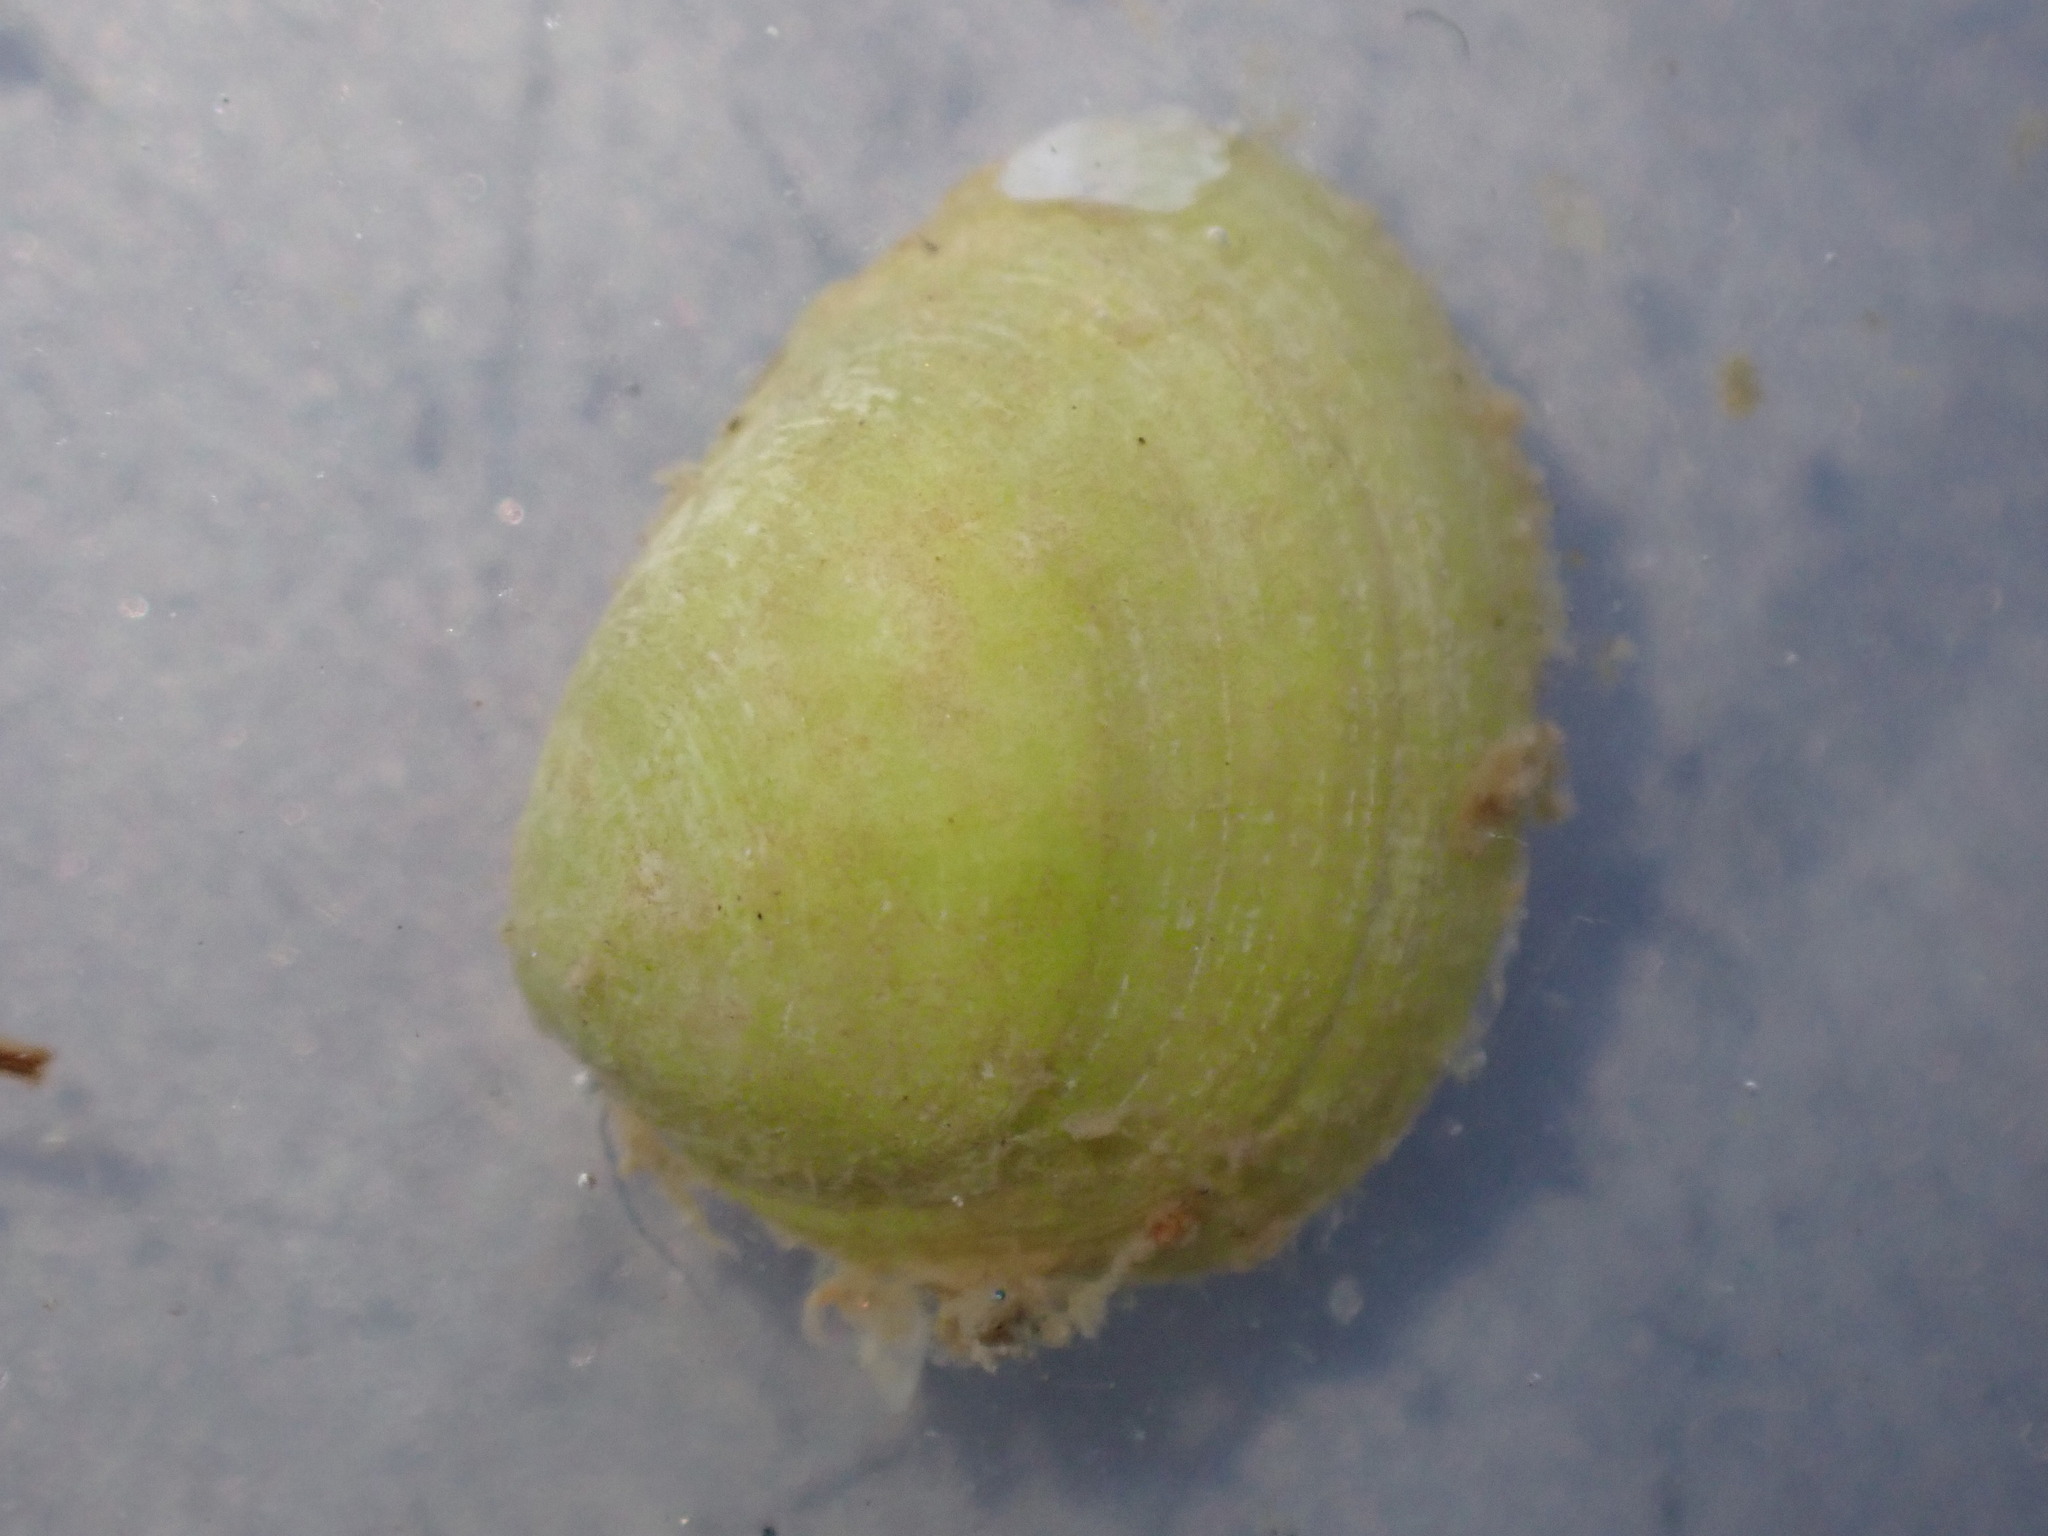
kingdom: Animalia
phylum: Mollusca
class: Bivalvia
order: Nuculida
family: Nuculidae
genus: Linucula
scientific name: Linucula hartvigiana
